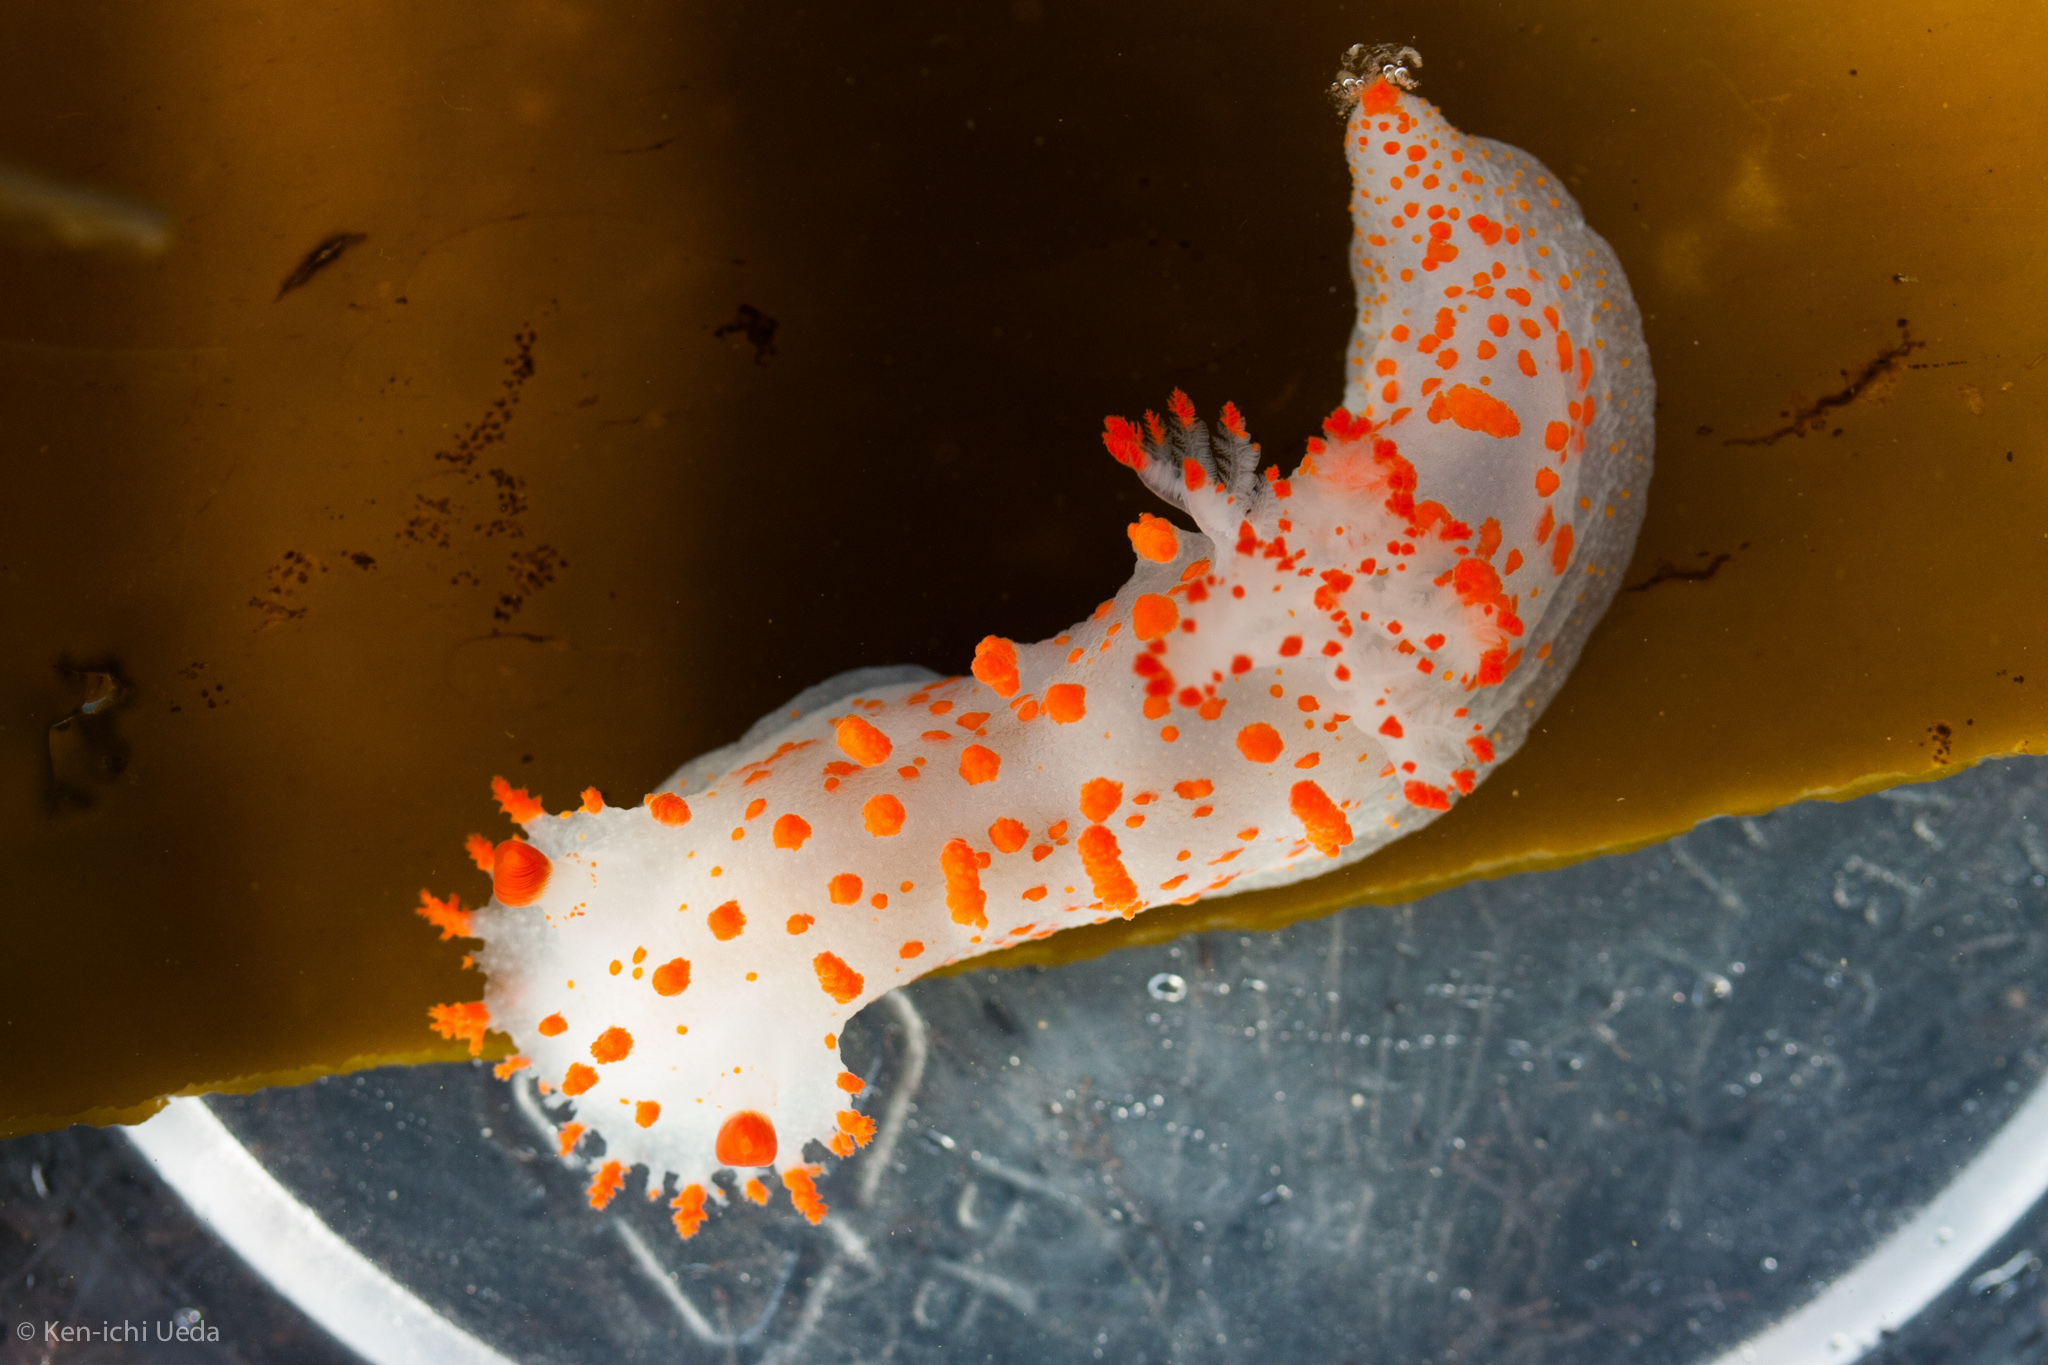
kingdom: Animalia
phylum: Mollusca
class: Gastropoda
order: Nudibranchia
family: Polyceridae
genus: Triopha
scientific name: Triopha catalinae
